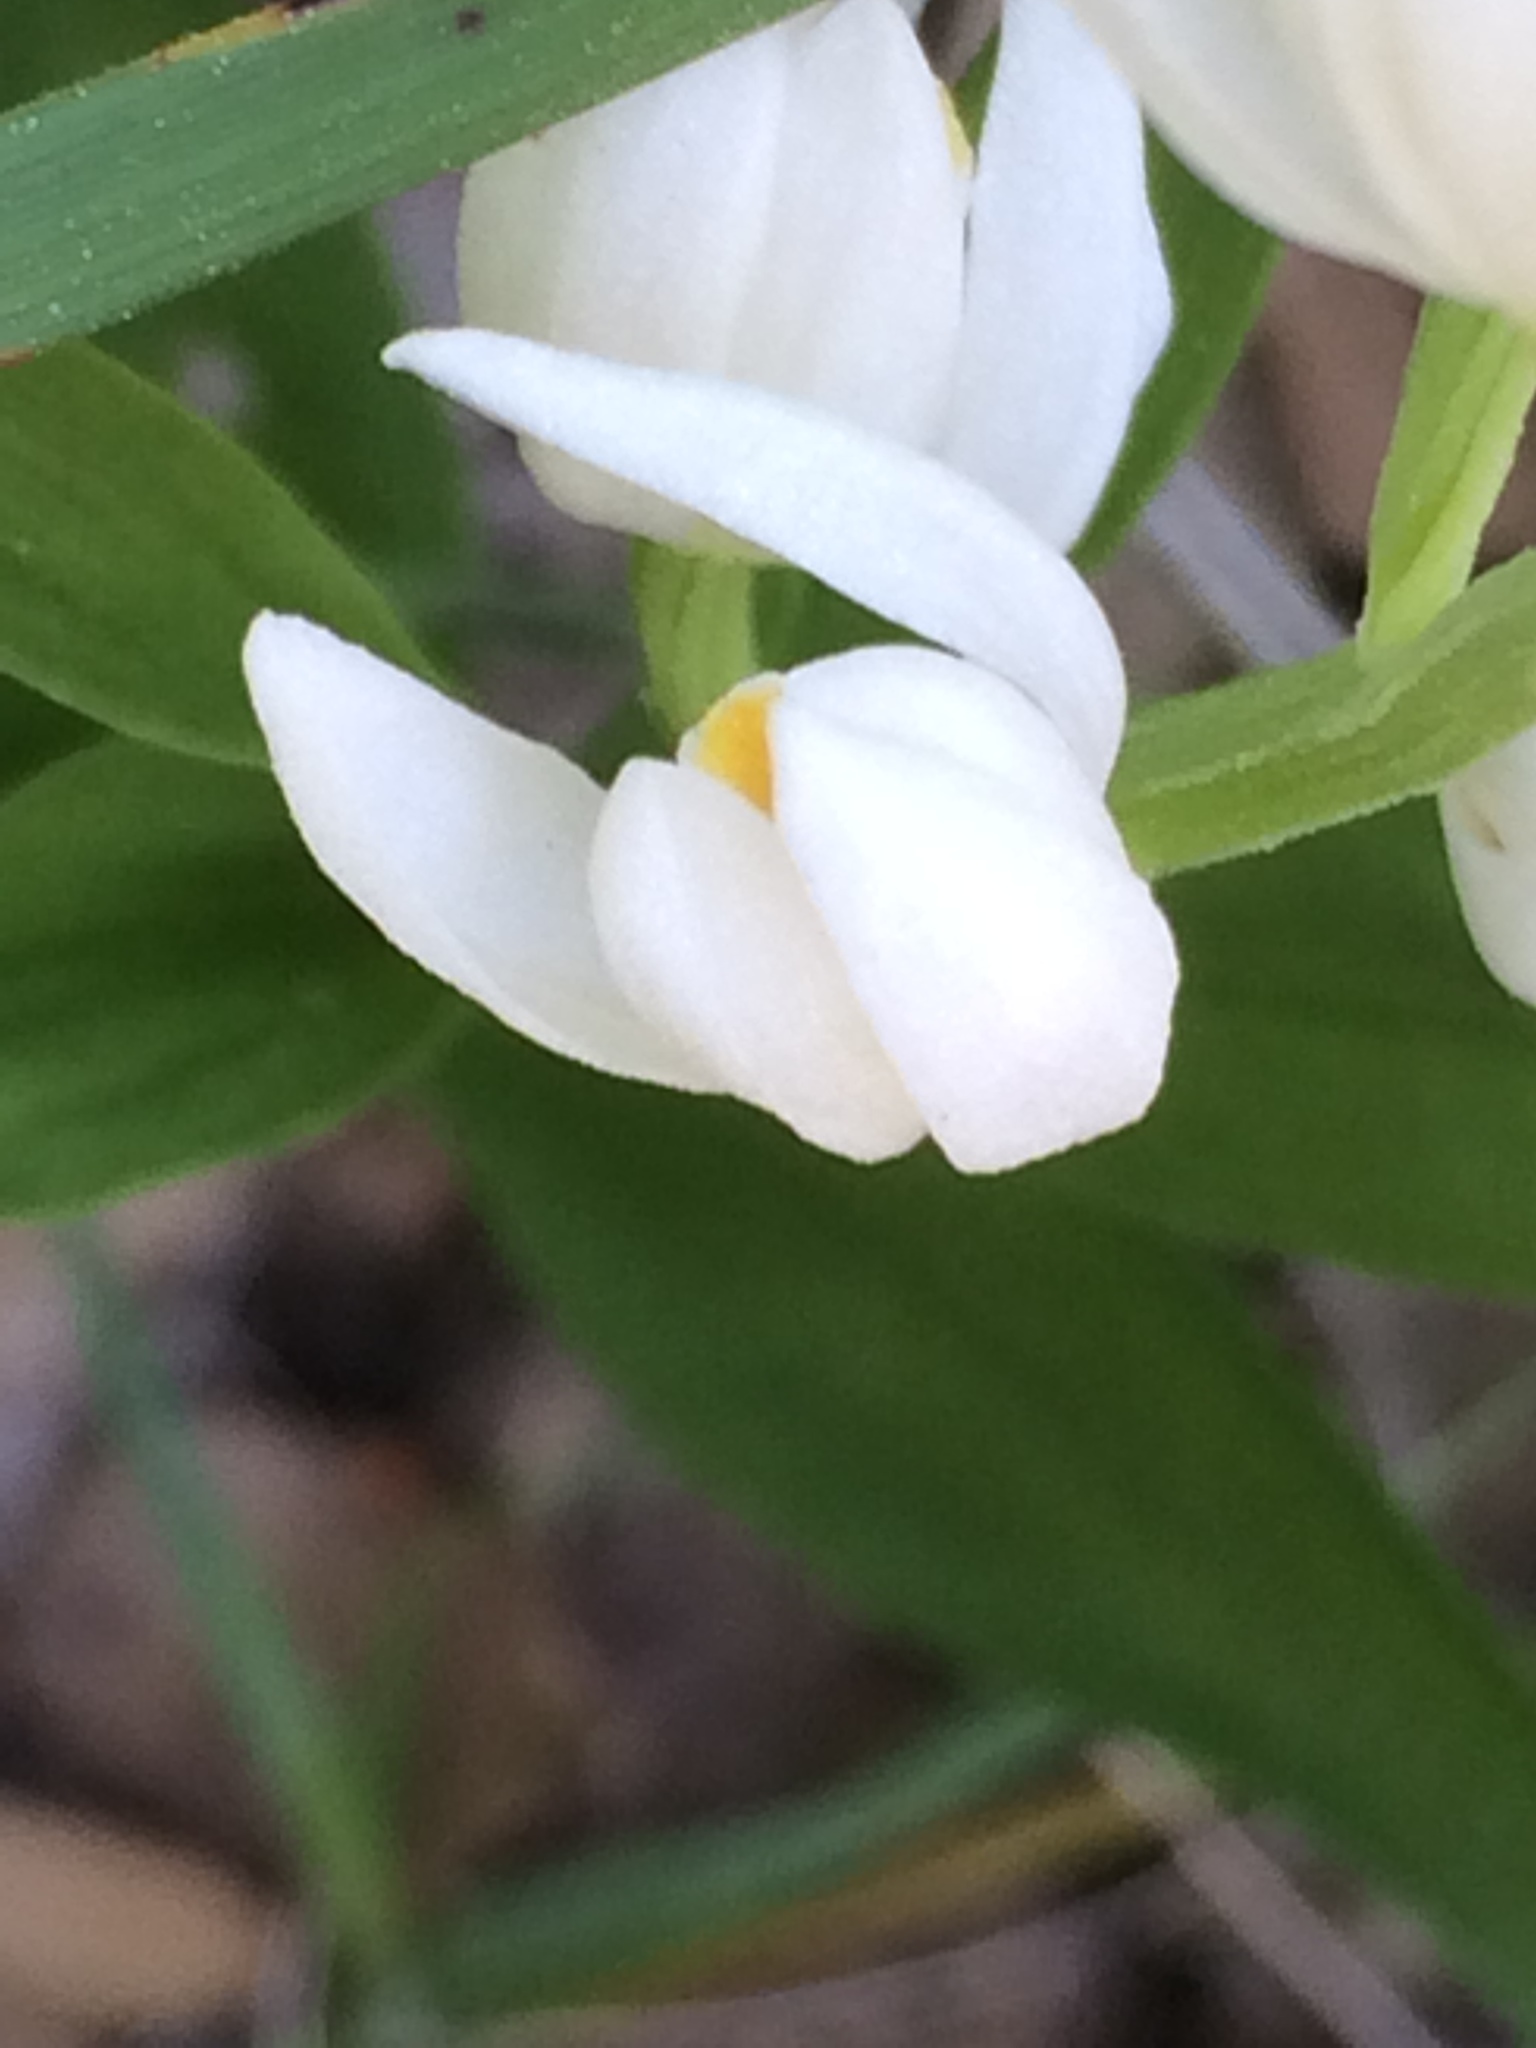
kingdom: Plantae
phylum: Tracheophyta
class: Liliopsida
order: Asparagales
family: Orchidaceae
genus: Cephalanthera
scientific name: Cephalanthera longifolia
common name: Narrow-leaved helleborine
